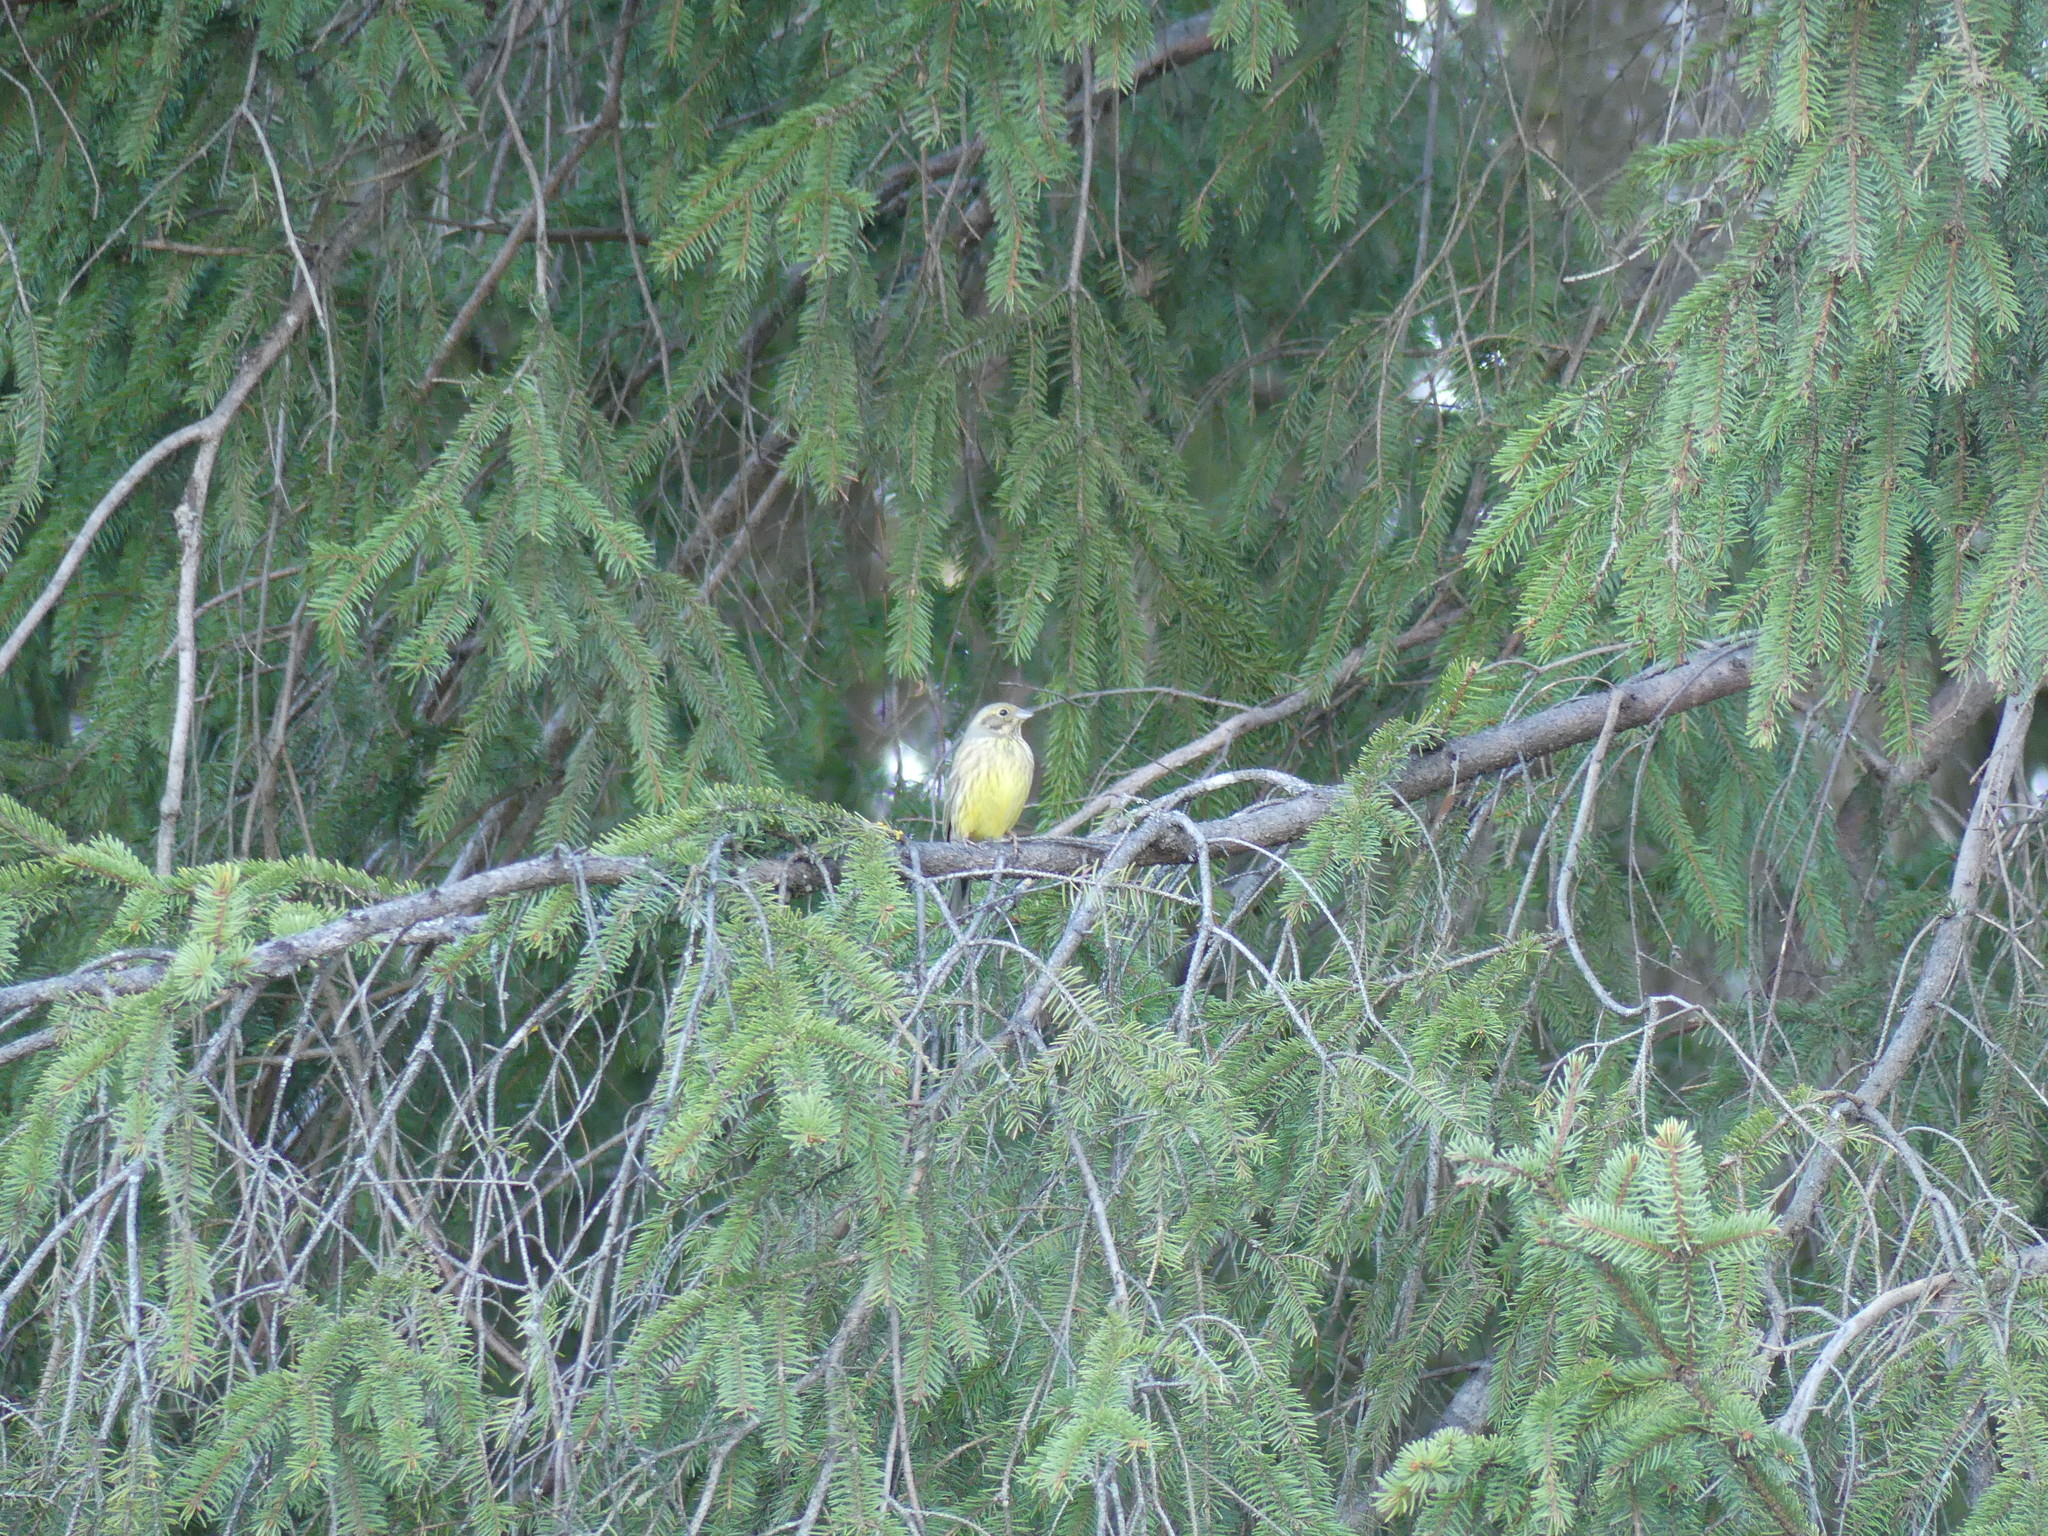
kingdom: Animalia
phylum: Chordata
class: Aves
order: Passeriformes
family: Emberizidae
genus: Emberiza
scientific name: Emberiza citrinella
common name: Yellowhammer
